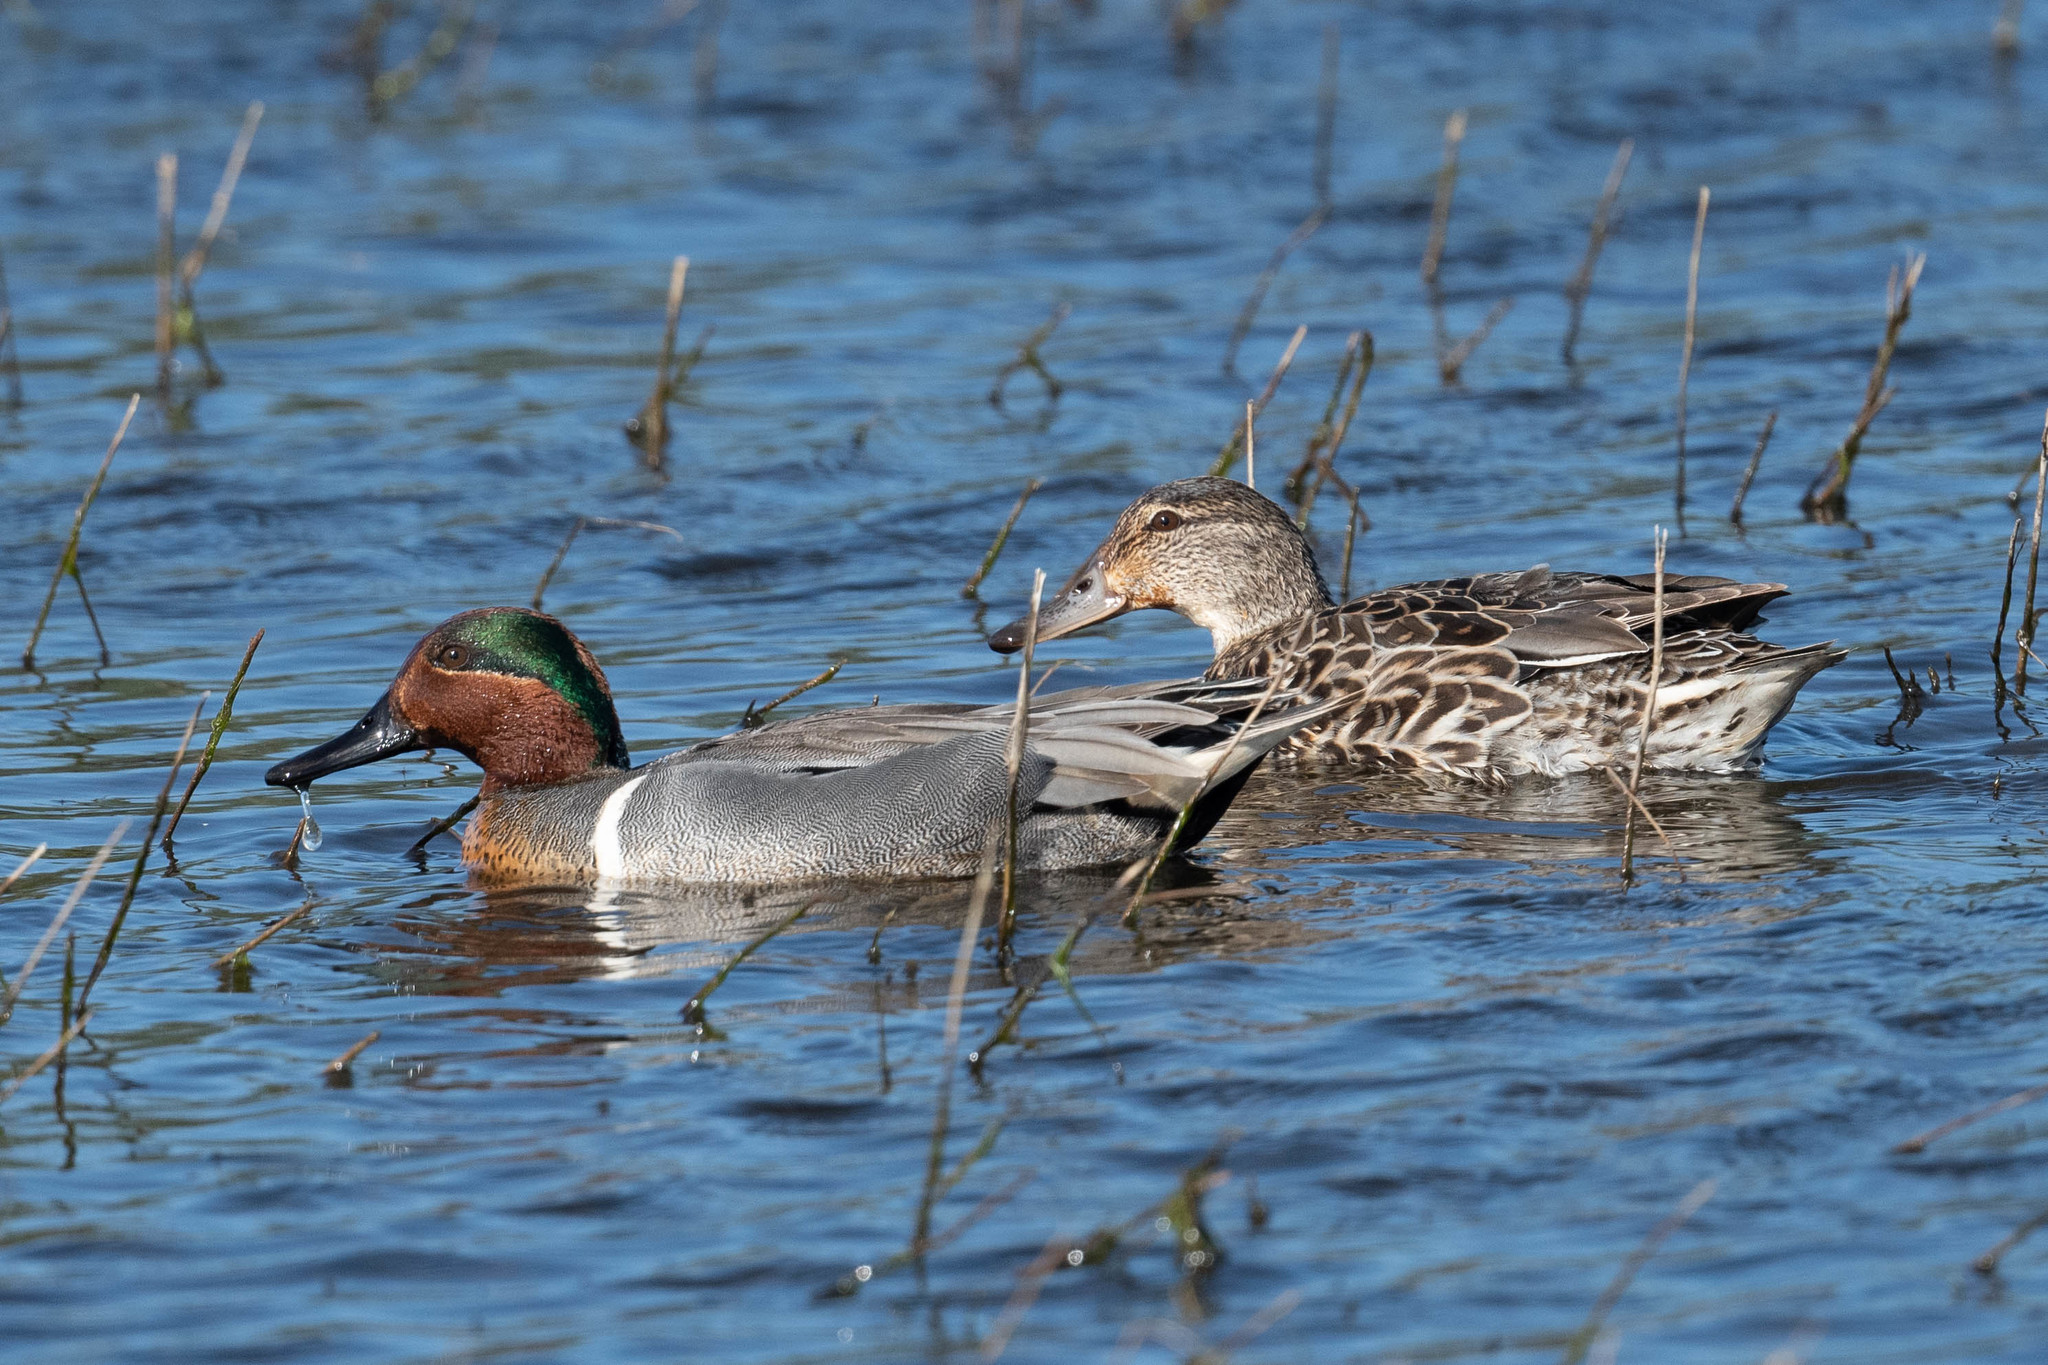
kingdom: Animalia
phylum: Chordata
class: Aves
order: Anseriformes
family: Anatidae
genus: Anas
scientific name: Anas crecca
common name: Eurasian teal
